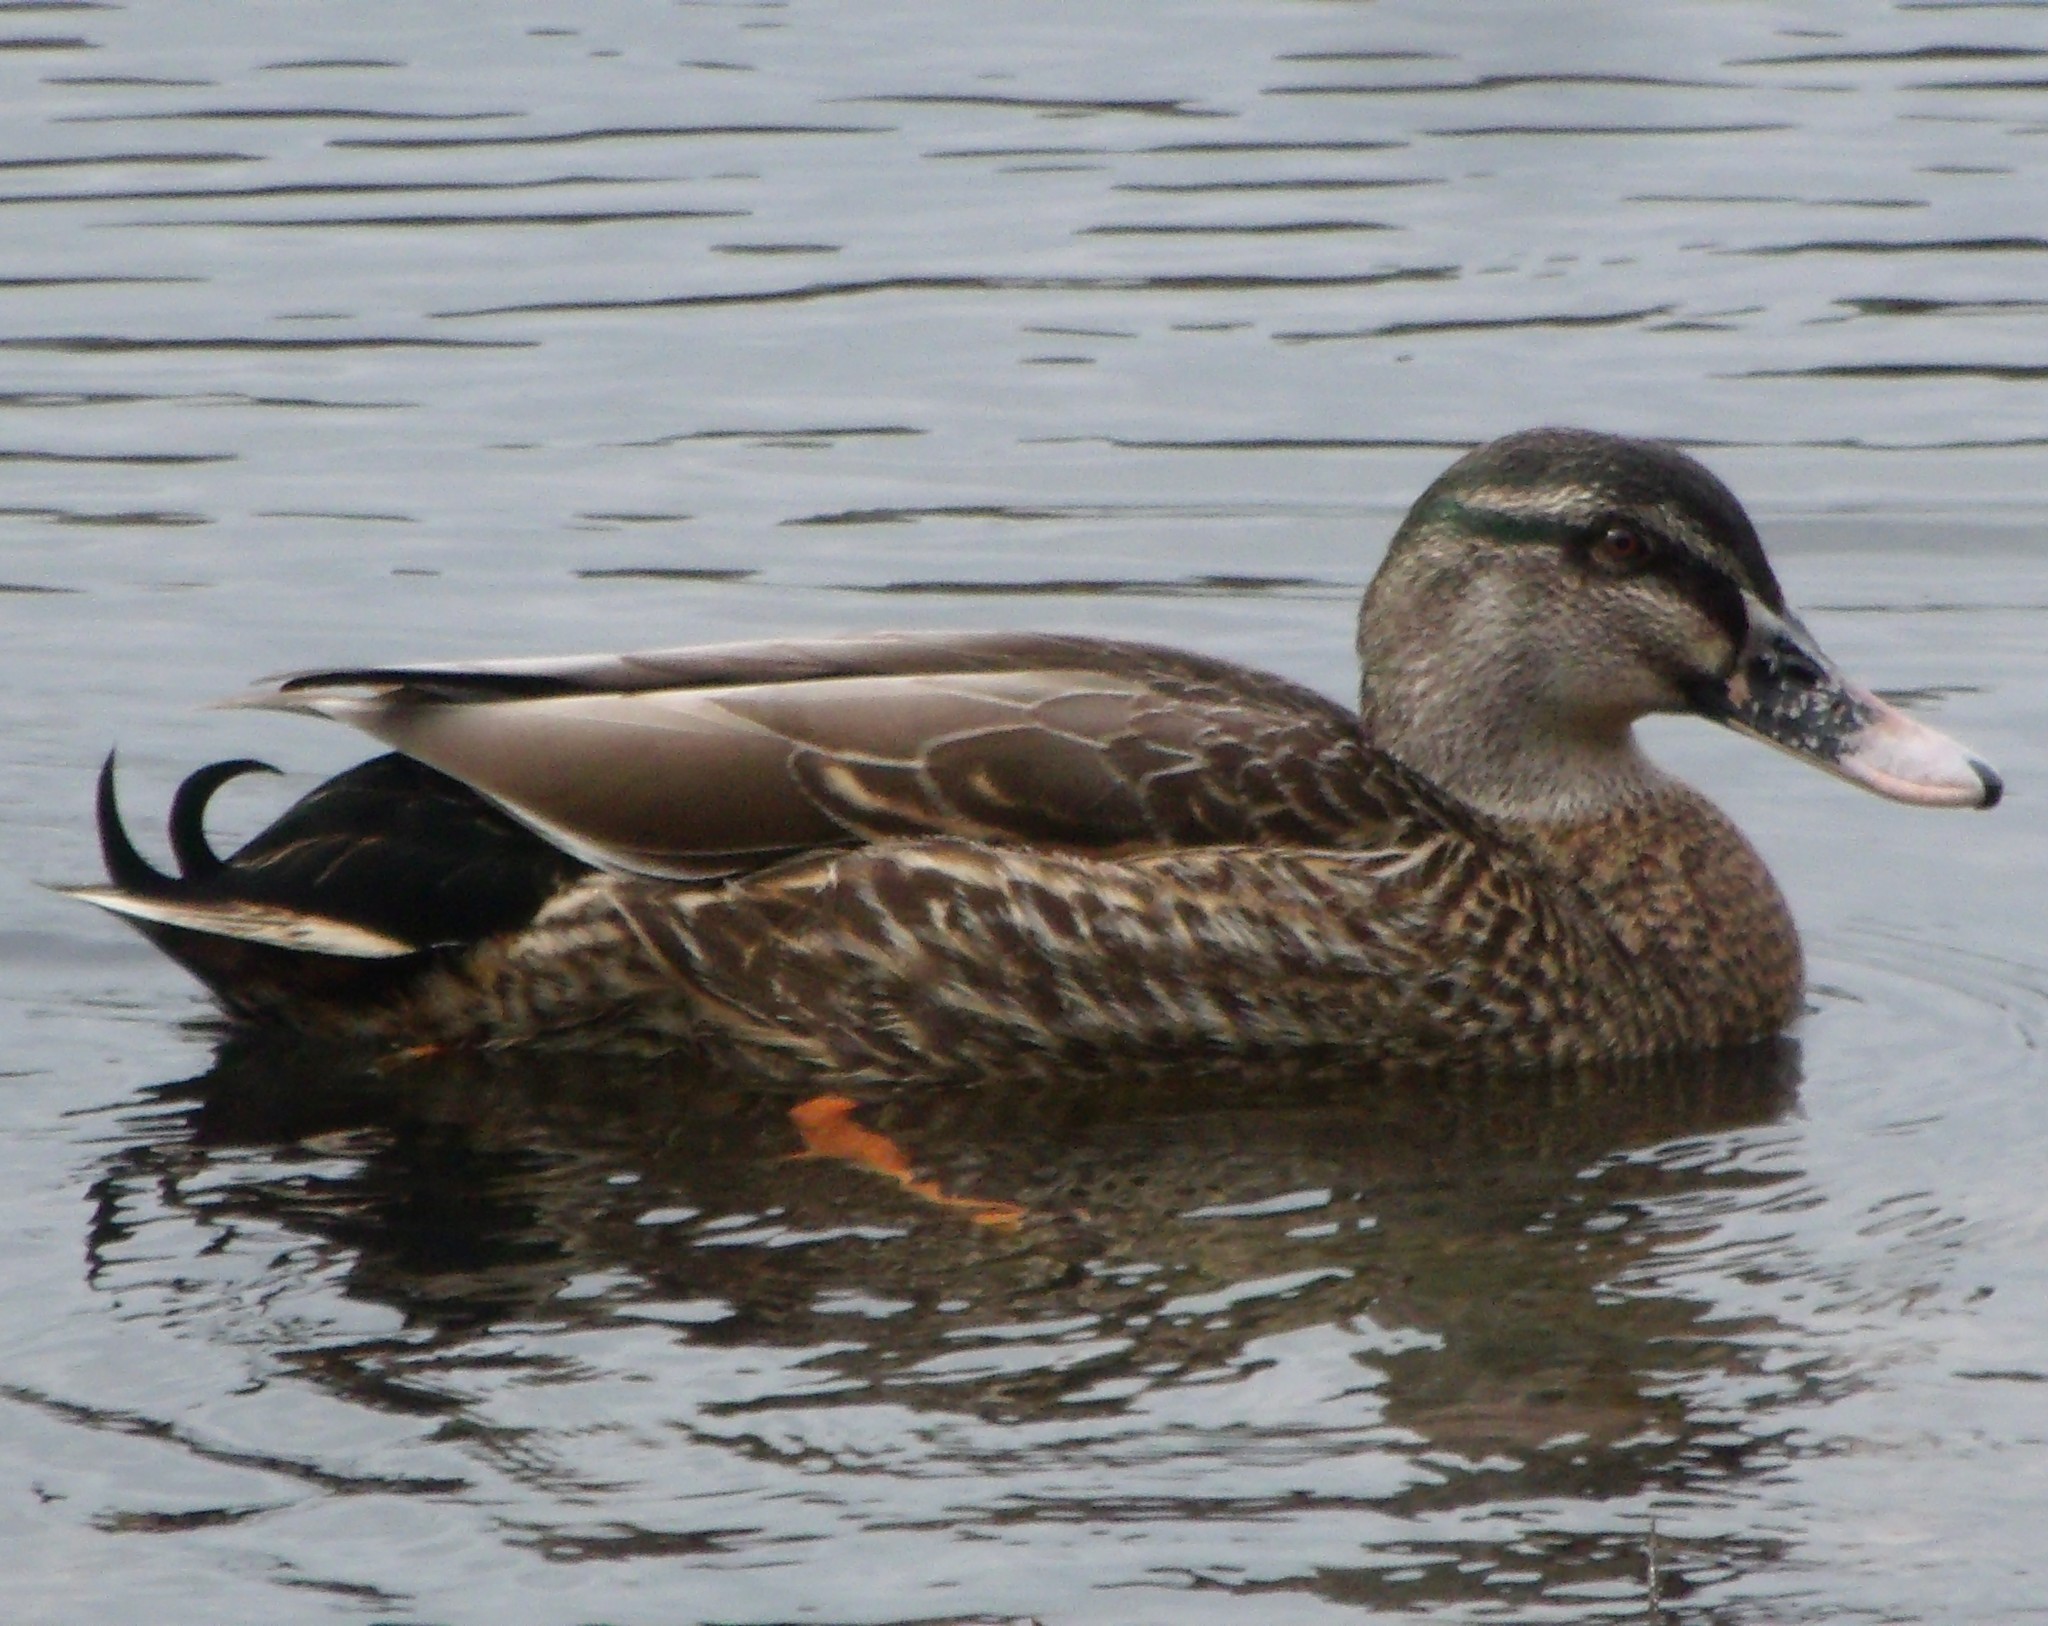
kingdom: Animalia
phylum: Chordata
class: Aves
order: Anseriformes
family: Anatidae
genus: Anas
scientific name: Anas
